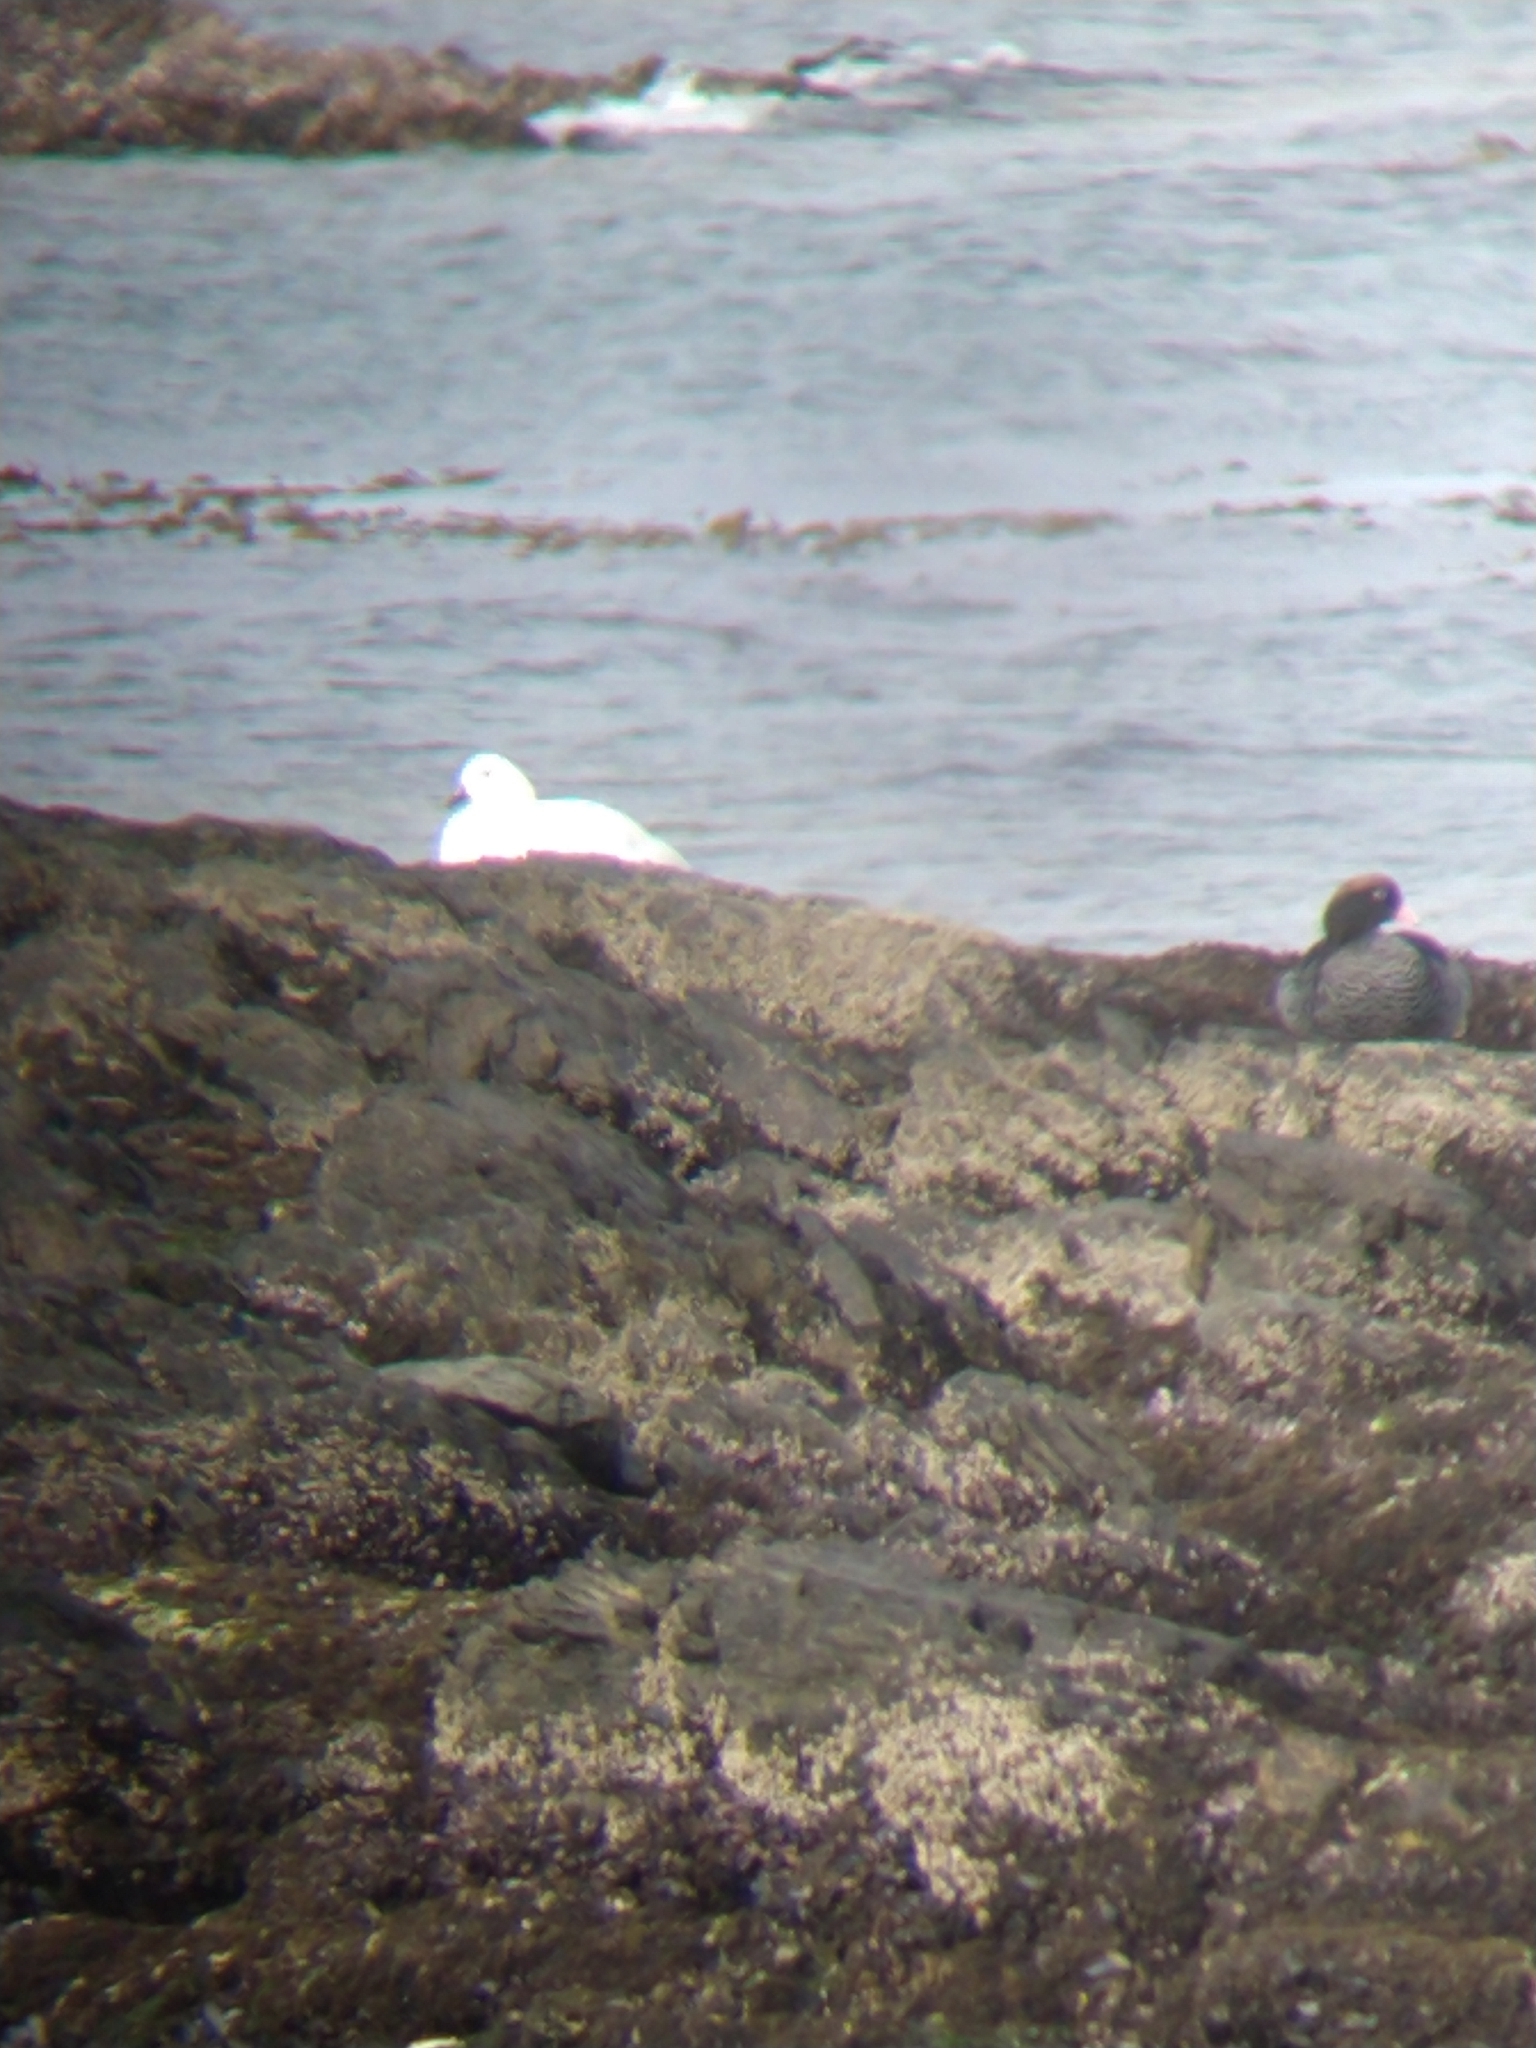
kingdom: Animalia
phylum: Chordata
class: Aves
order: Anseriformes
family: Anatidae
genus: Chloephaga
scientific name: Chloephaga hybrida
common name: Kelp goose
